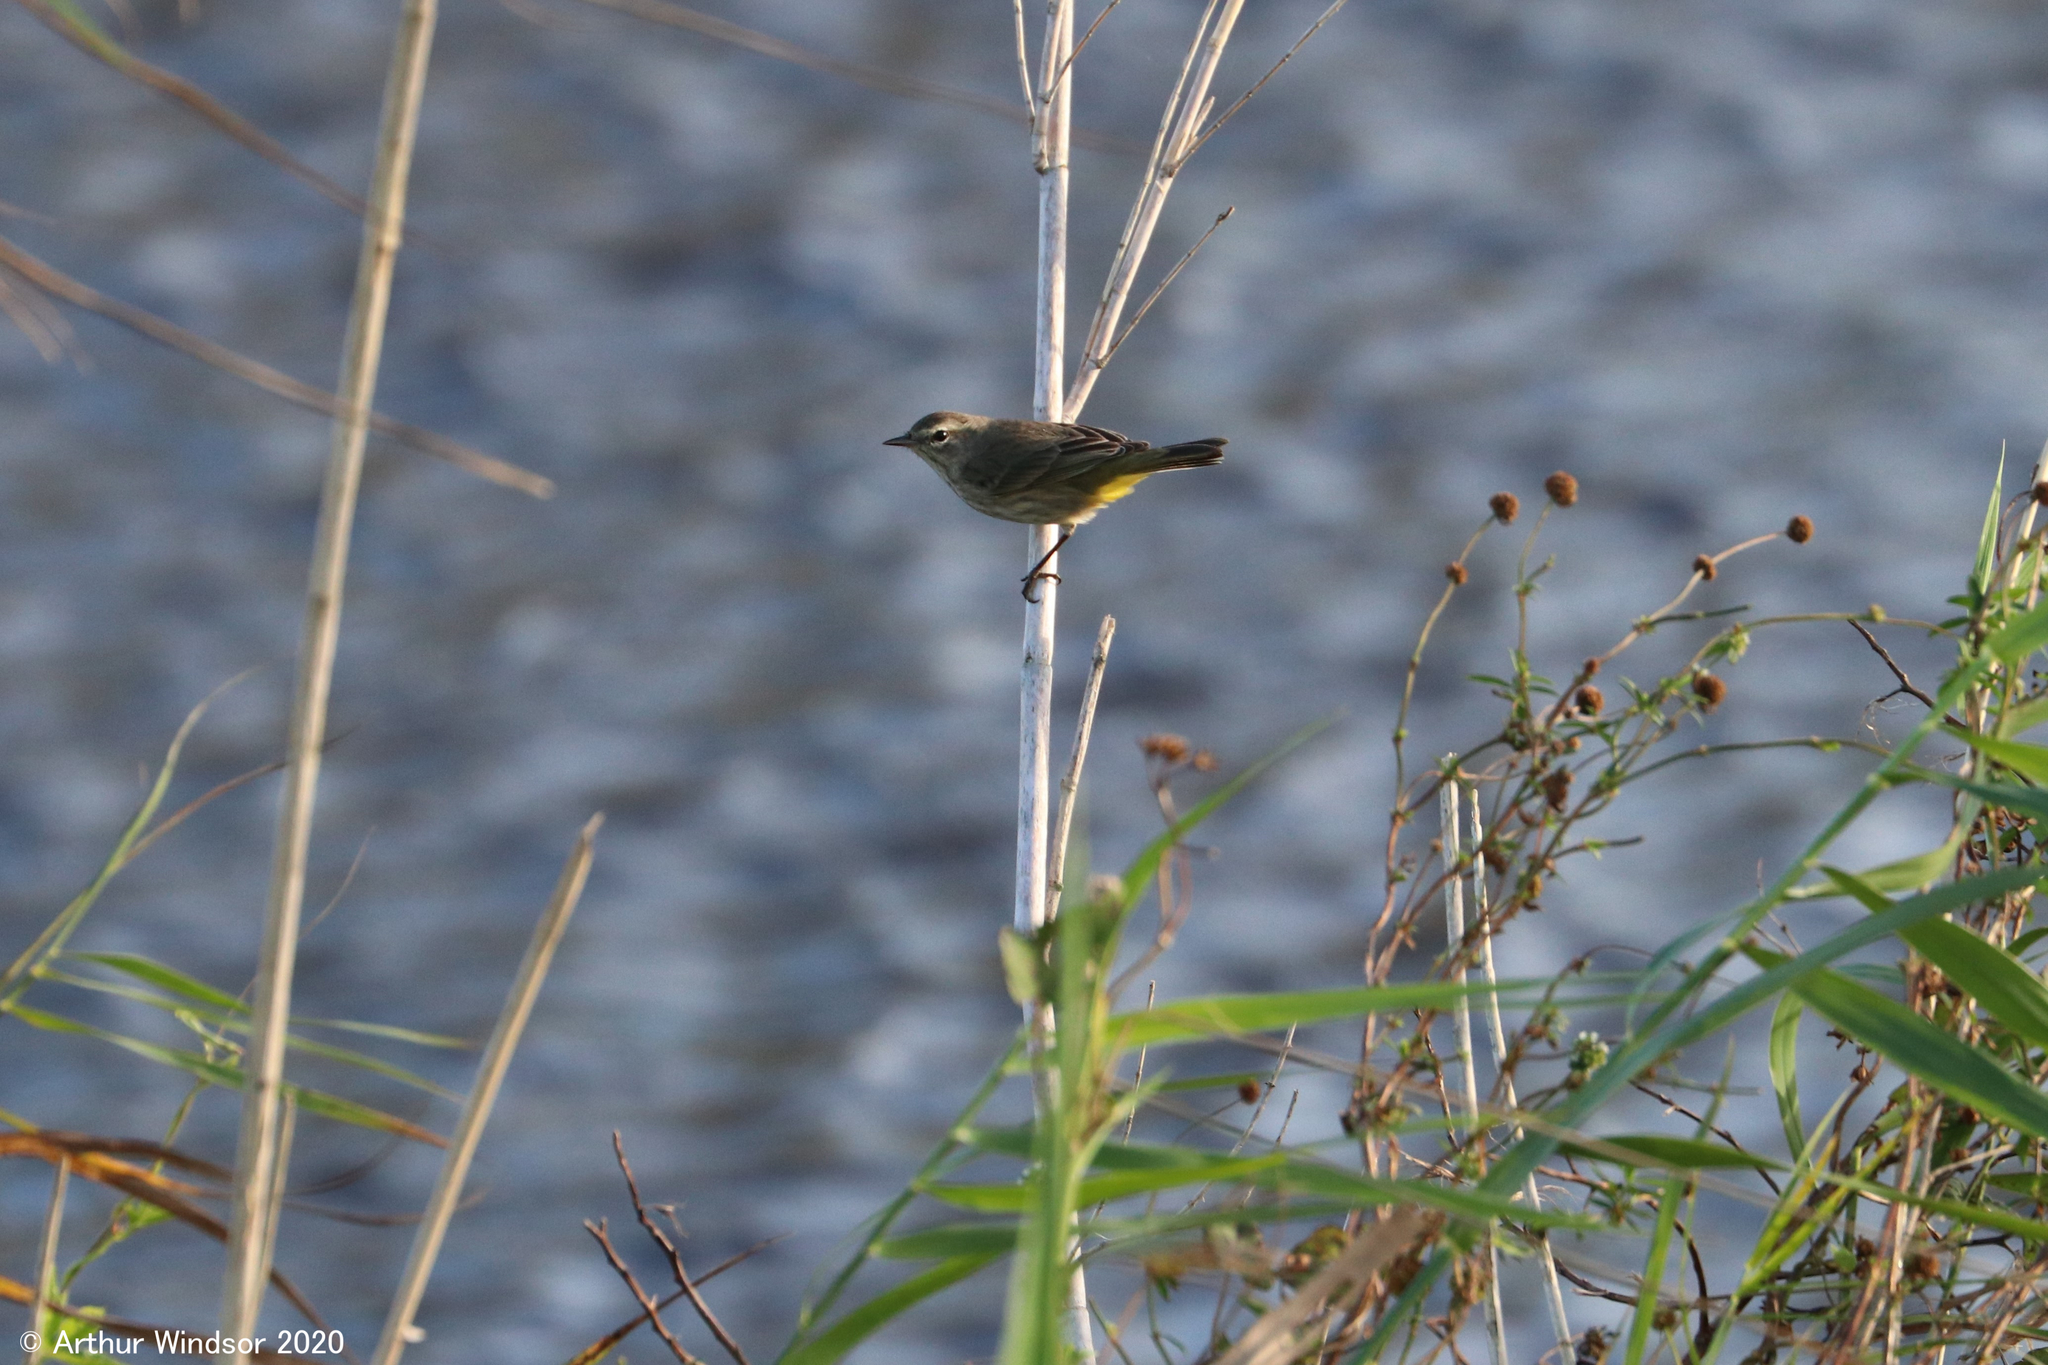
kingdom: Animalia
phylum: Chordata
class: Aves
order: Passeriformes
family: Parulidae
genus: Setophaga
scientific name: Setophaga palmarum
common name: Palm warbler
